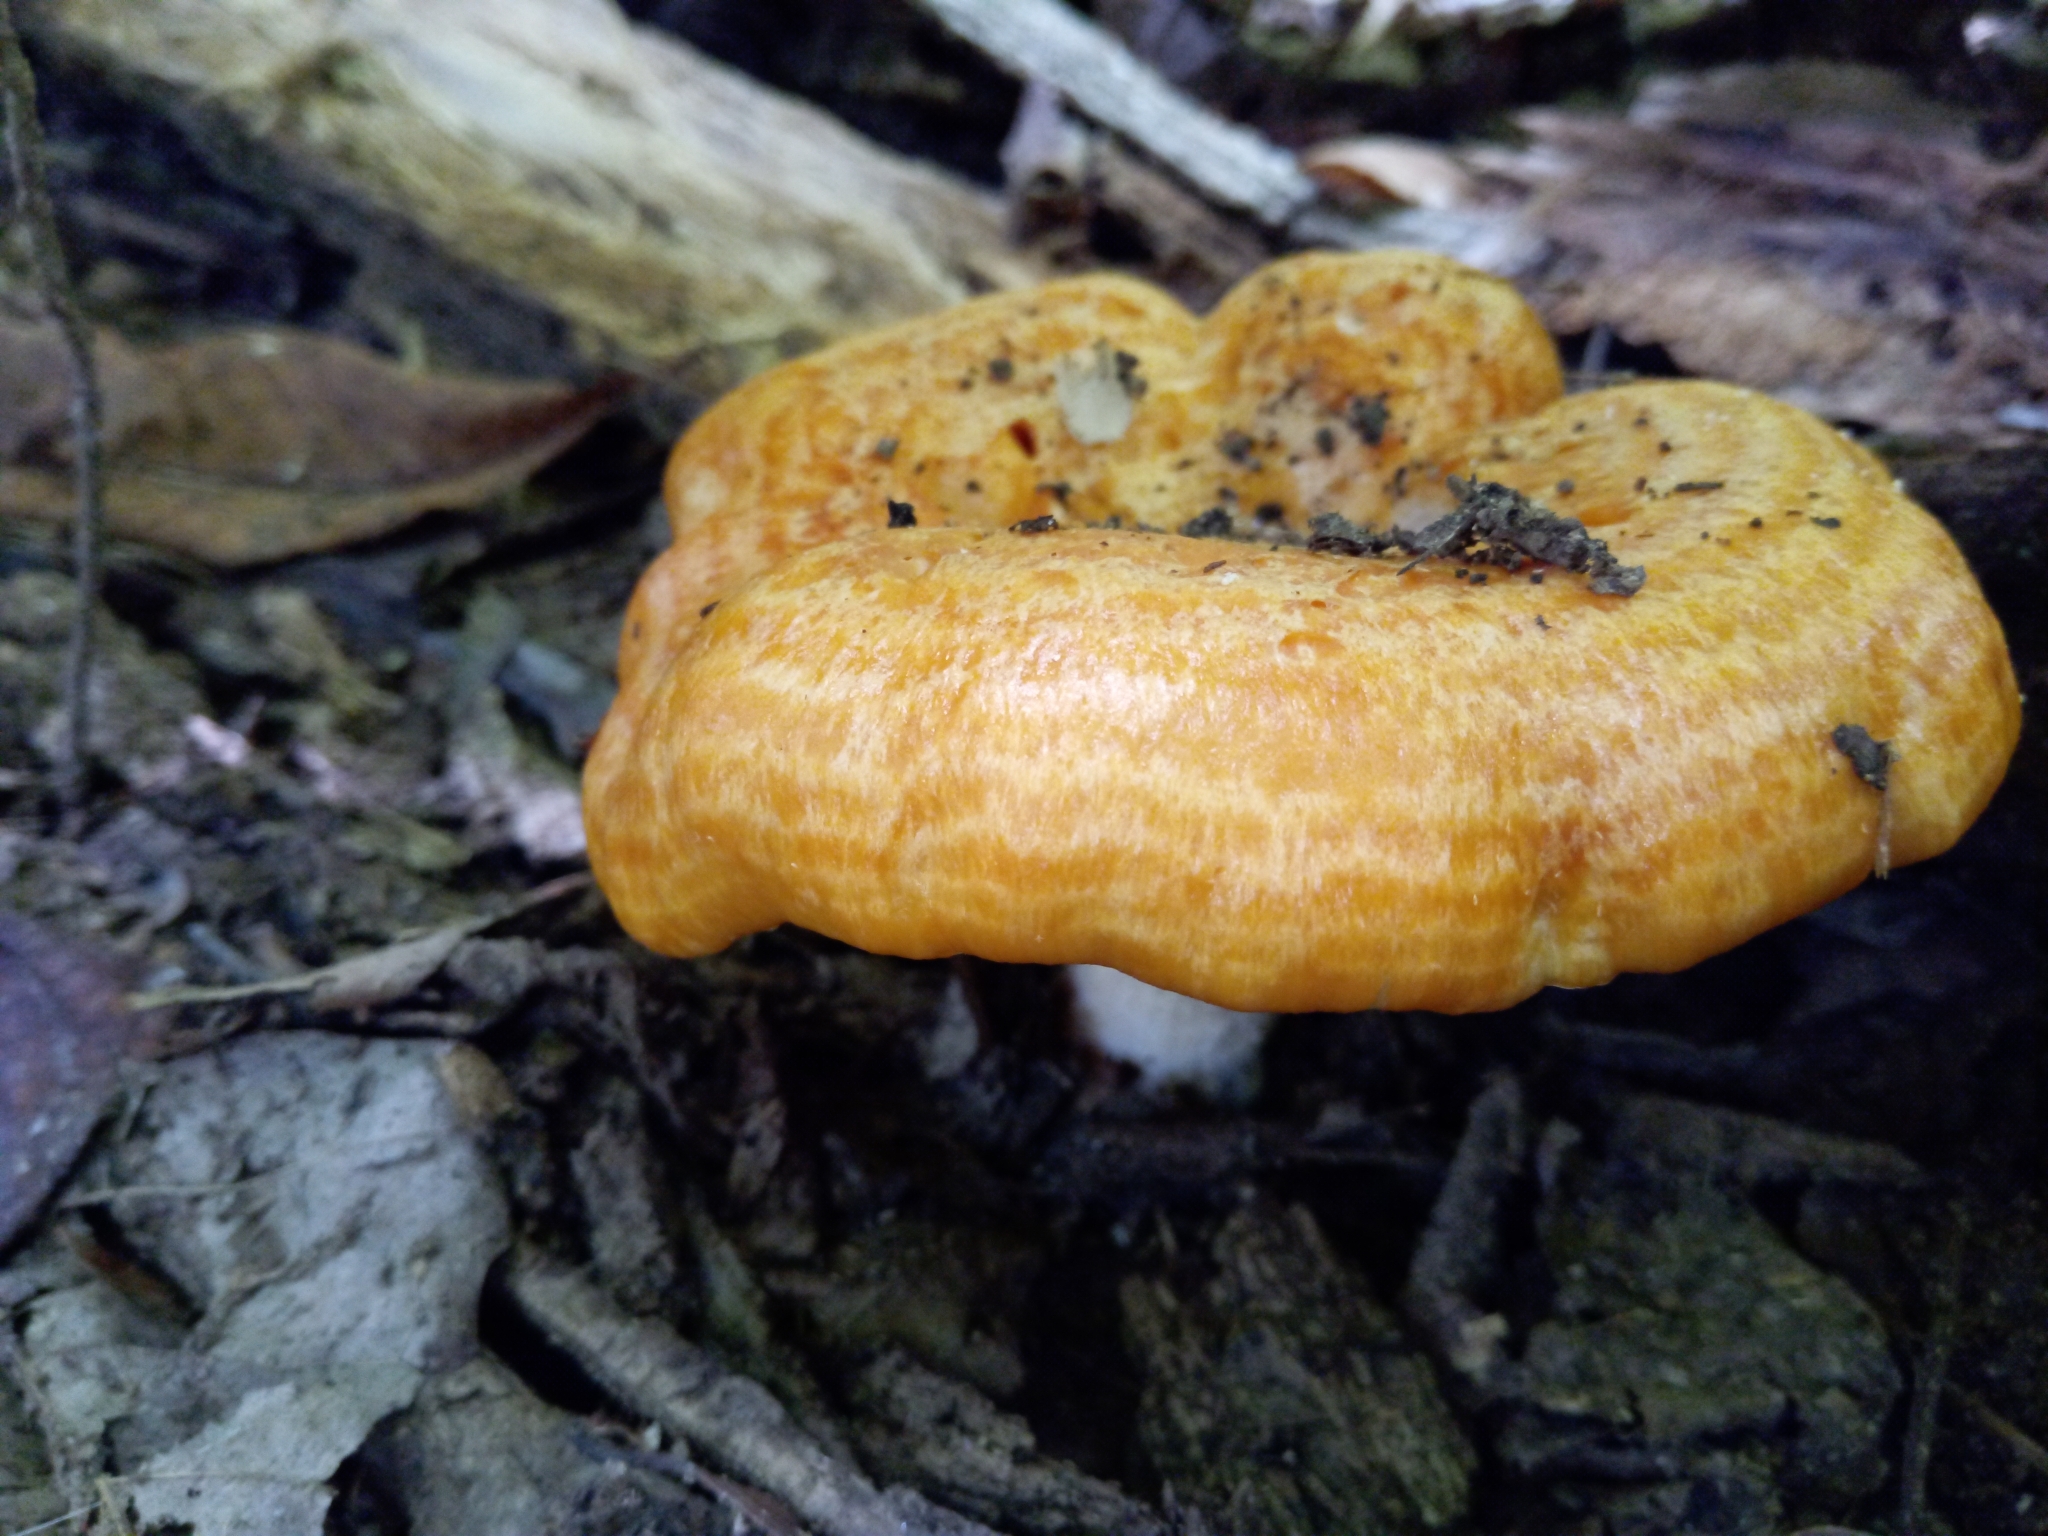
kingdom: Fungi
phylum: Basidiomycota
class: Agaricomycetes
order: Russulales
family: Russulaceae
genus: Lactarius
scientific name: Lactarius psammicola
